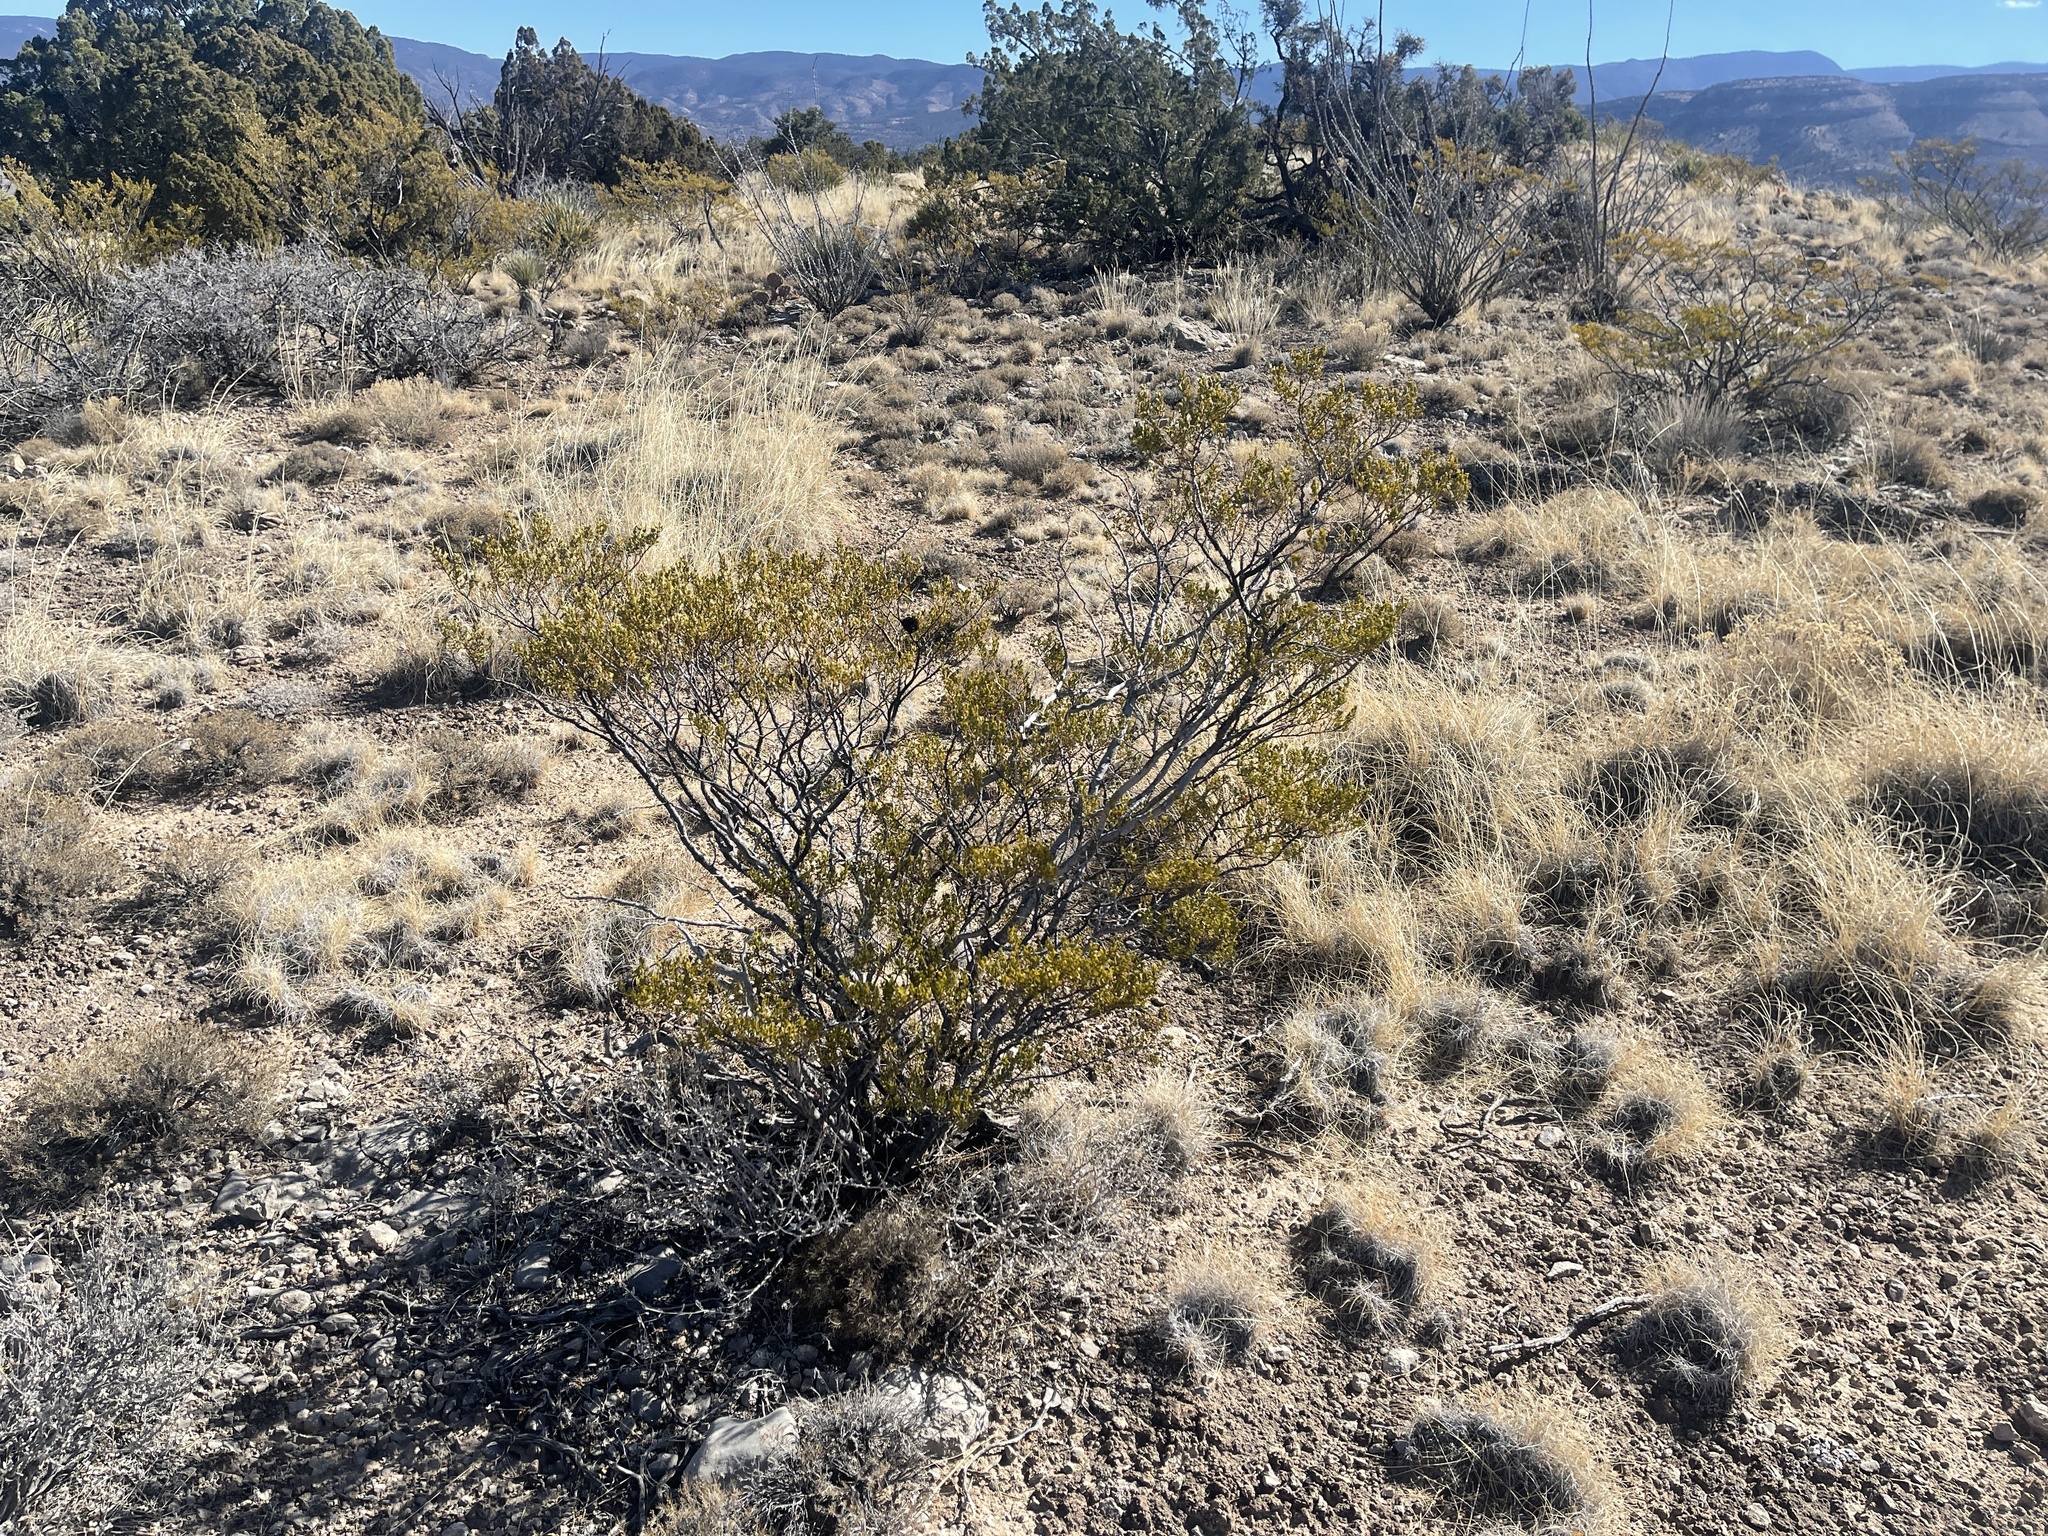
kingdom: Plantae
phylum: Tracheophyta
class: Magnoliopsida
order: Zygophyllales
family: Zygophyllaceae
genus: Larrea
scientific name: Larrea tridentata
